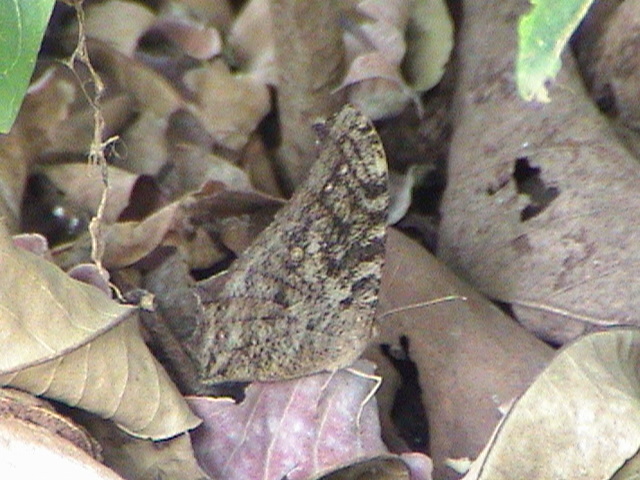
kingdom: Animalia
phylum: Arthropoda
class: Insecta
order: Lepidoptera
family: Nymphalidae
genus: Melanitis
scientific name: Melanitis leda
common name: Twilight brown
